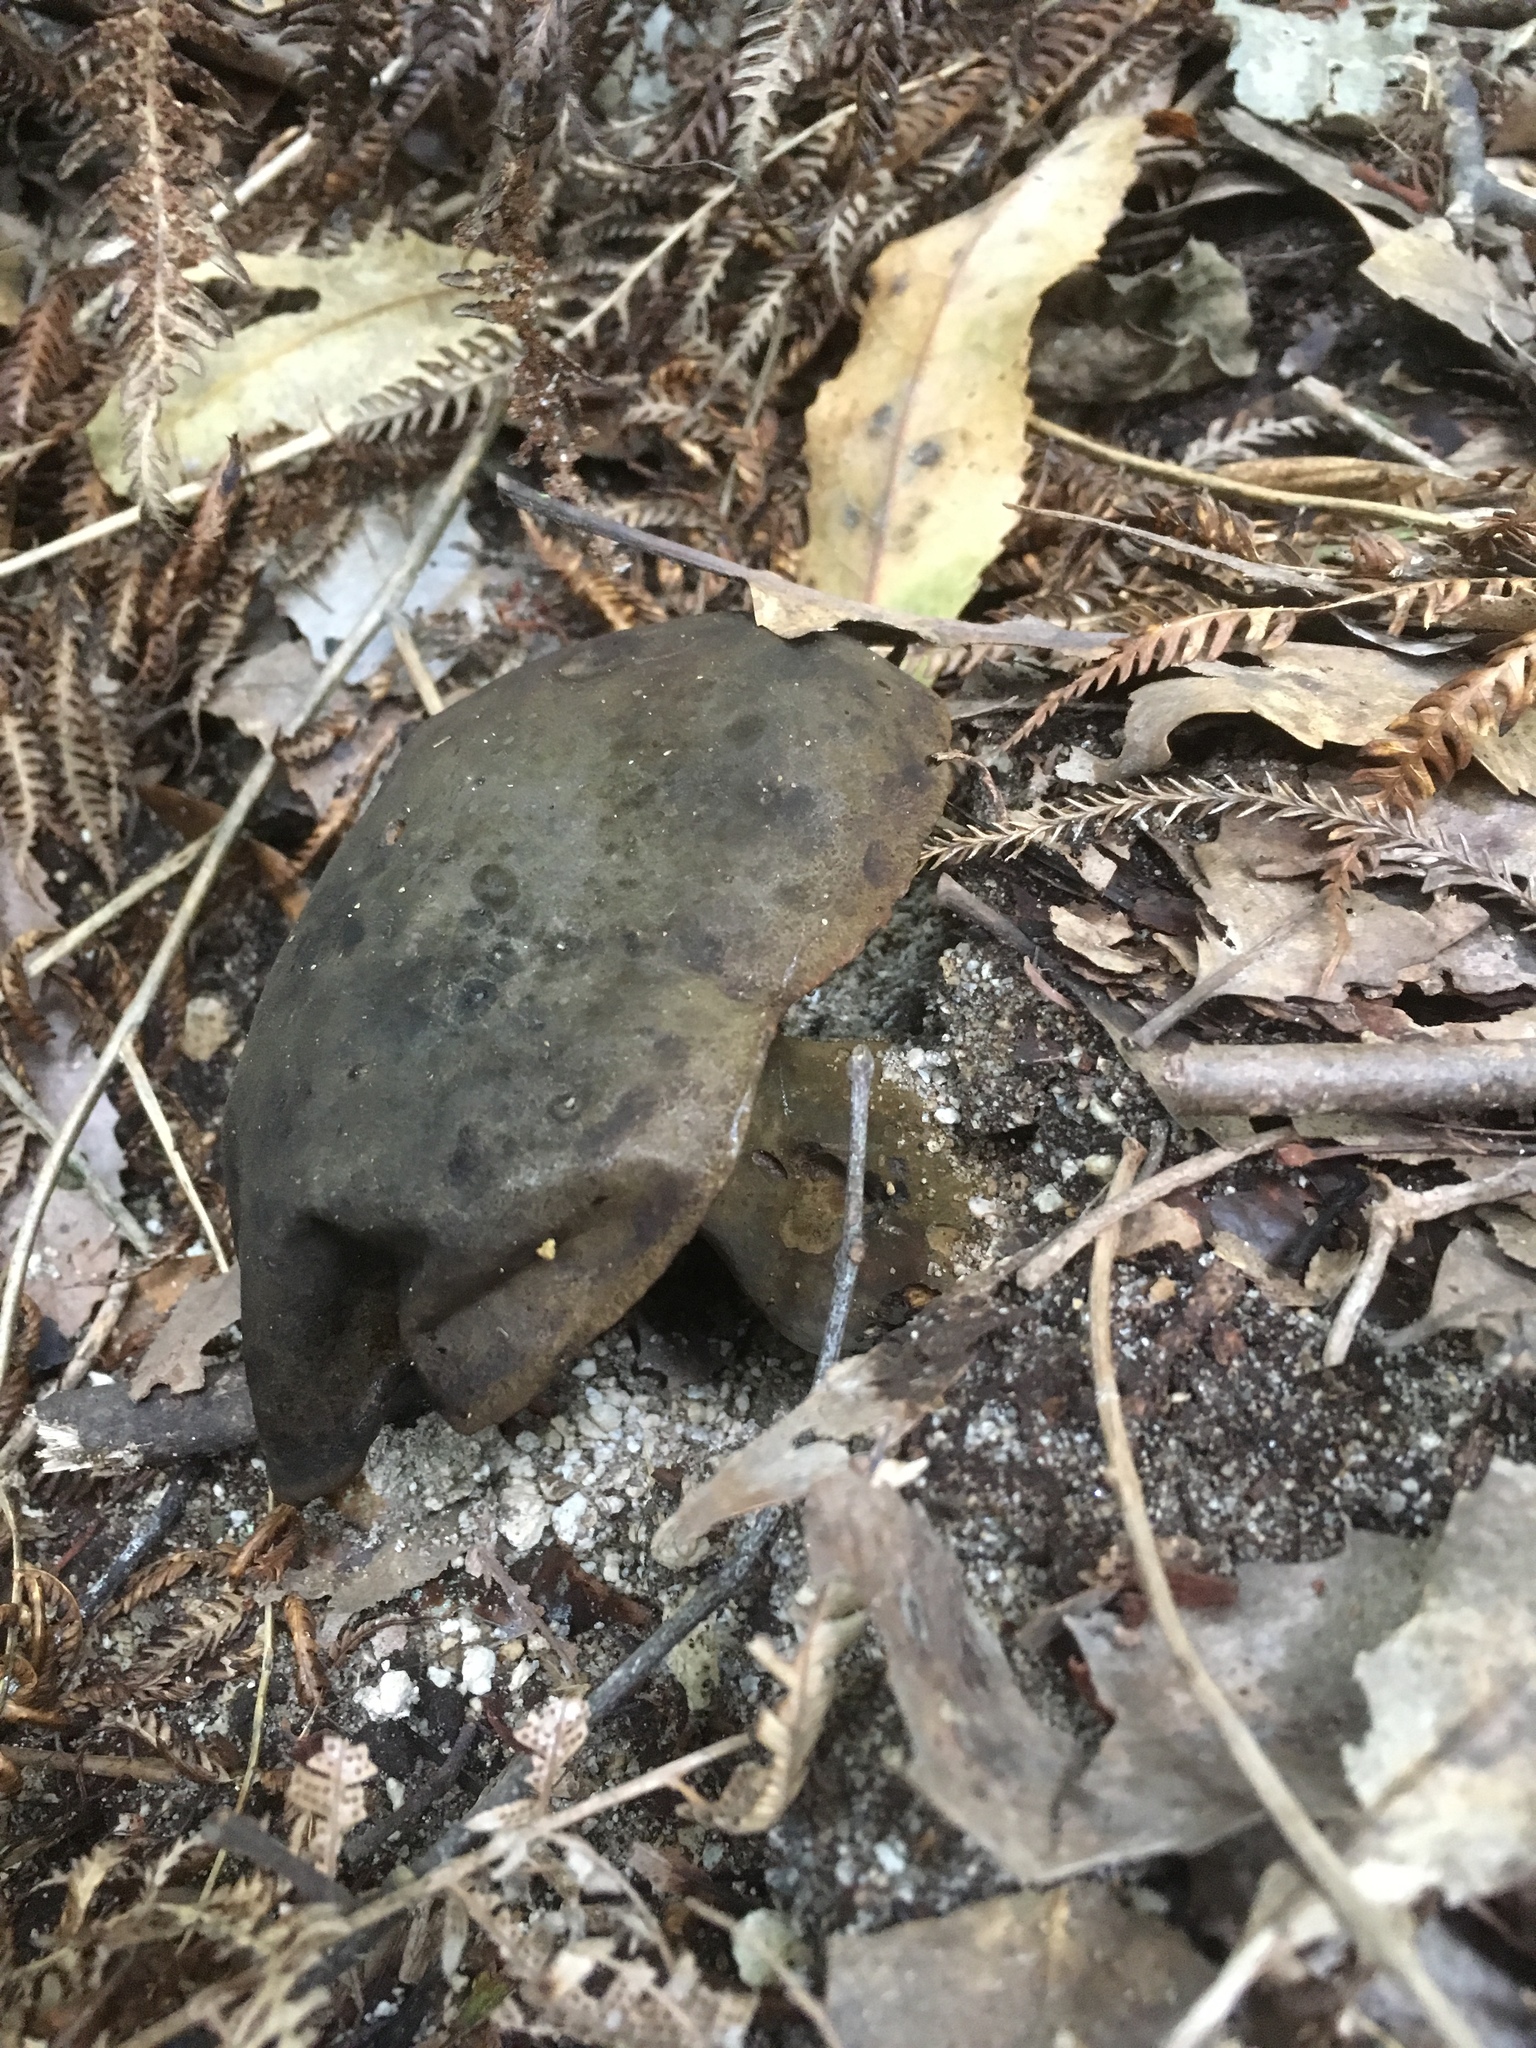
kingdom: Fungi
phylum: Basidiomycota
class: Agaricomycetes
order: Boletales
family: Boletinellaceae
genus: Phlebopus
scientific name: Phlebopus marginatus
